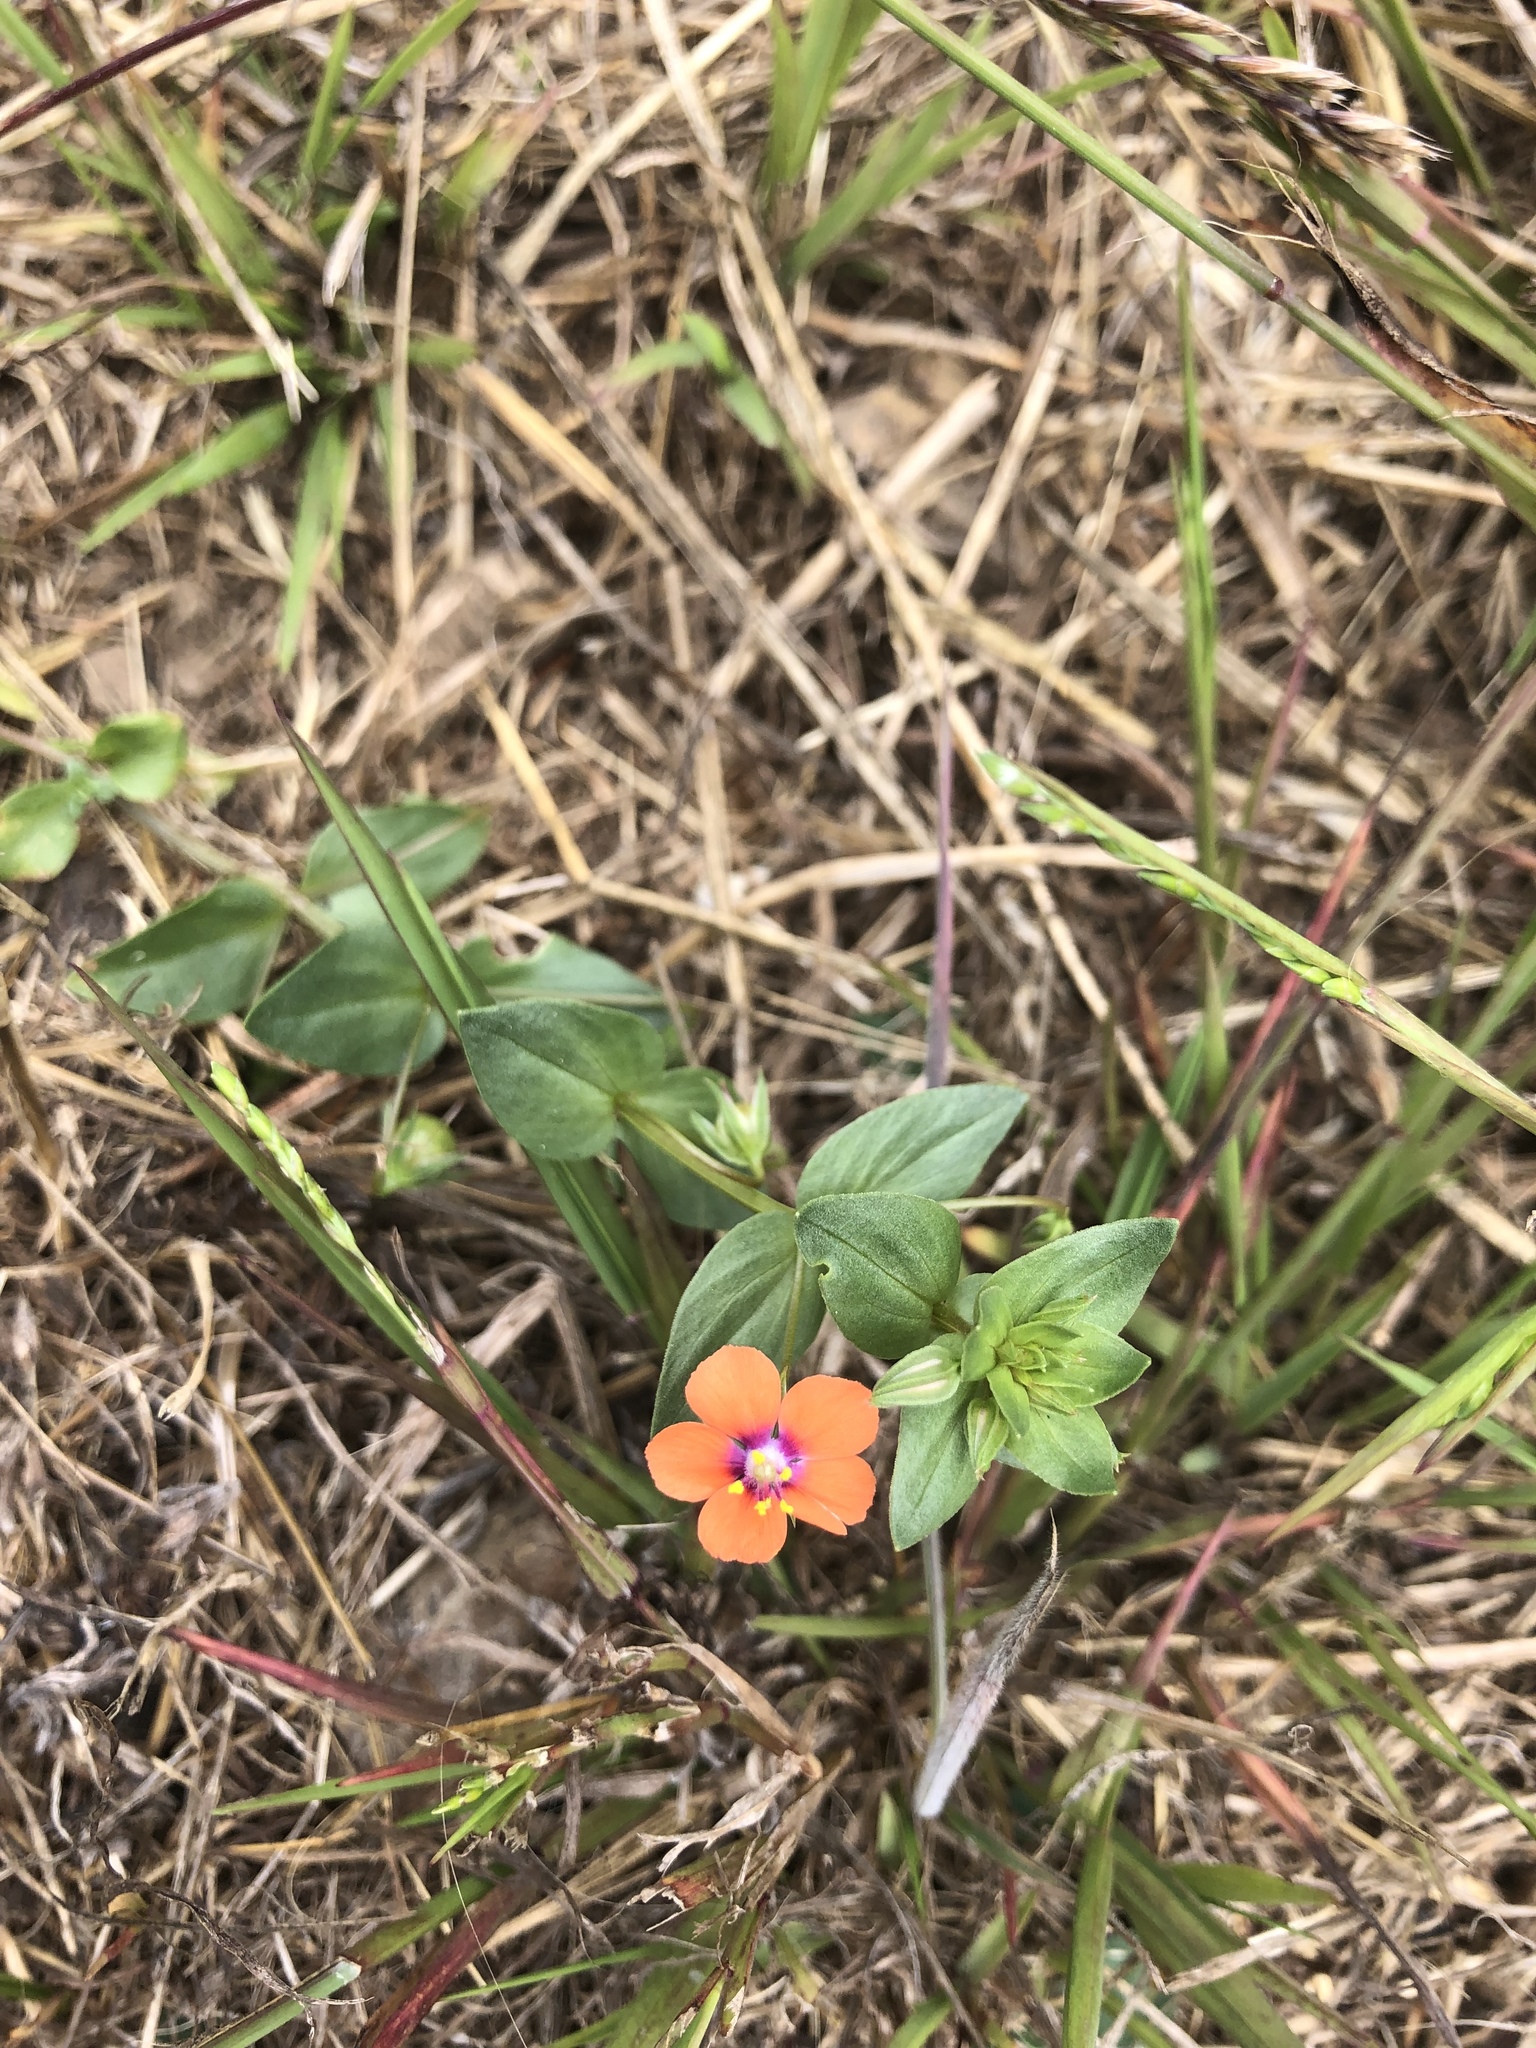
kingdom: Plantae
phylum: Tracheophyta
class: Magnoliopsida
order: Ericales
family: Primulaceae
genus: Lysimachia
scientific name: Lysimachia arvensis
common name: Scarlet pimpernel
